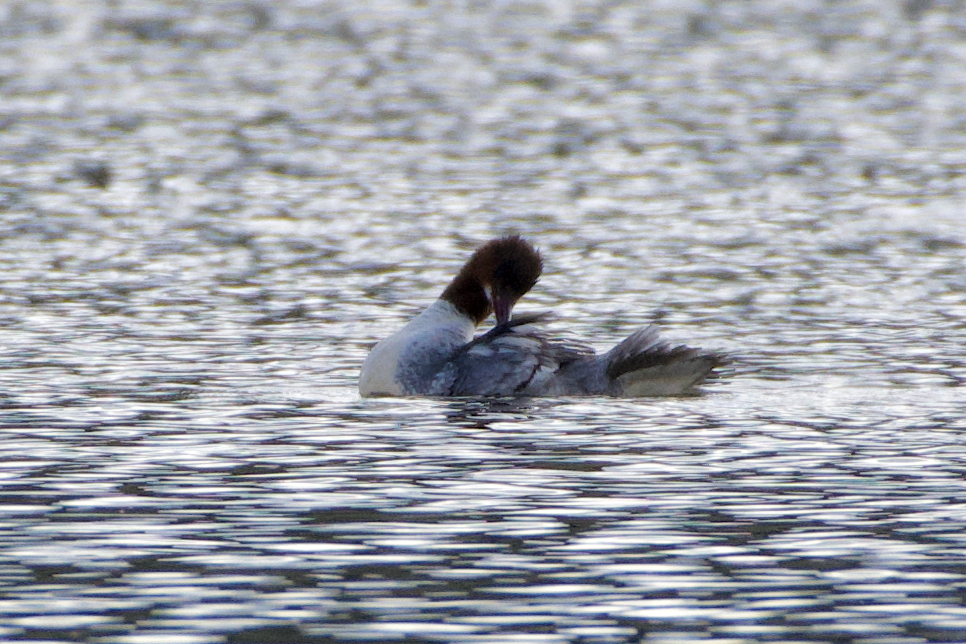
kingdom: Animalia
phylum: Chordata
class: Aves
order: Anseriformes
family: Anatidae
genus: Mergus
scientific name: Mergus merganser
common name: Common merganser
